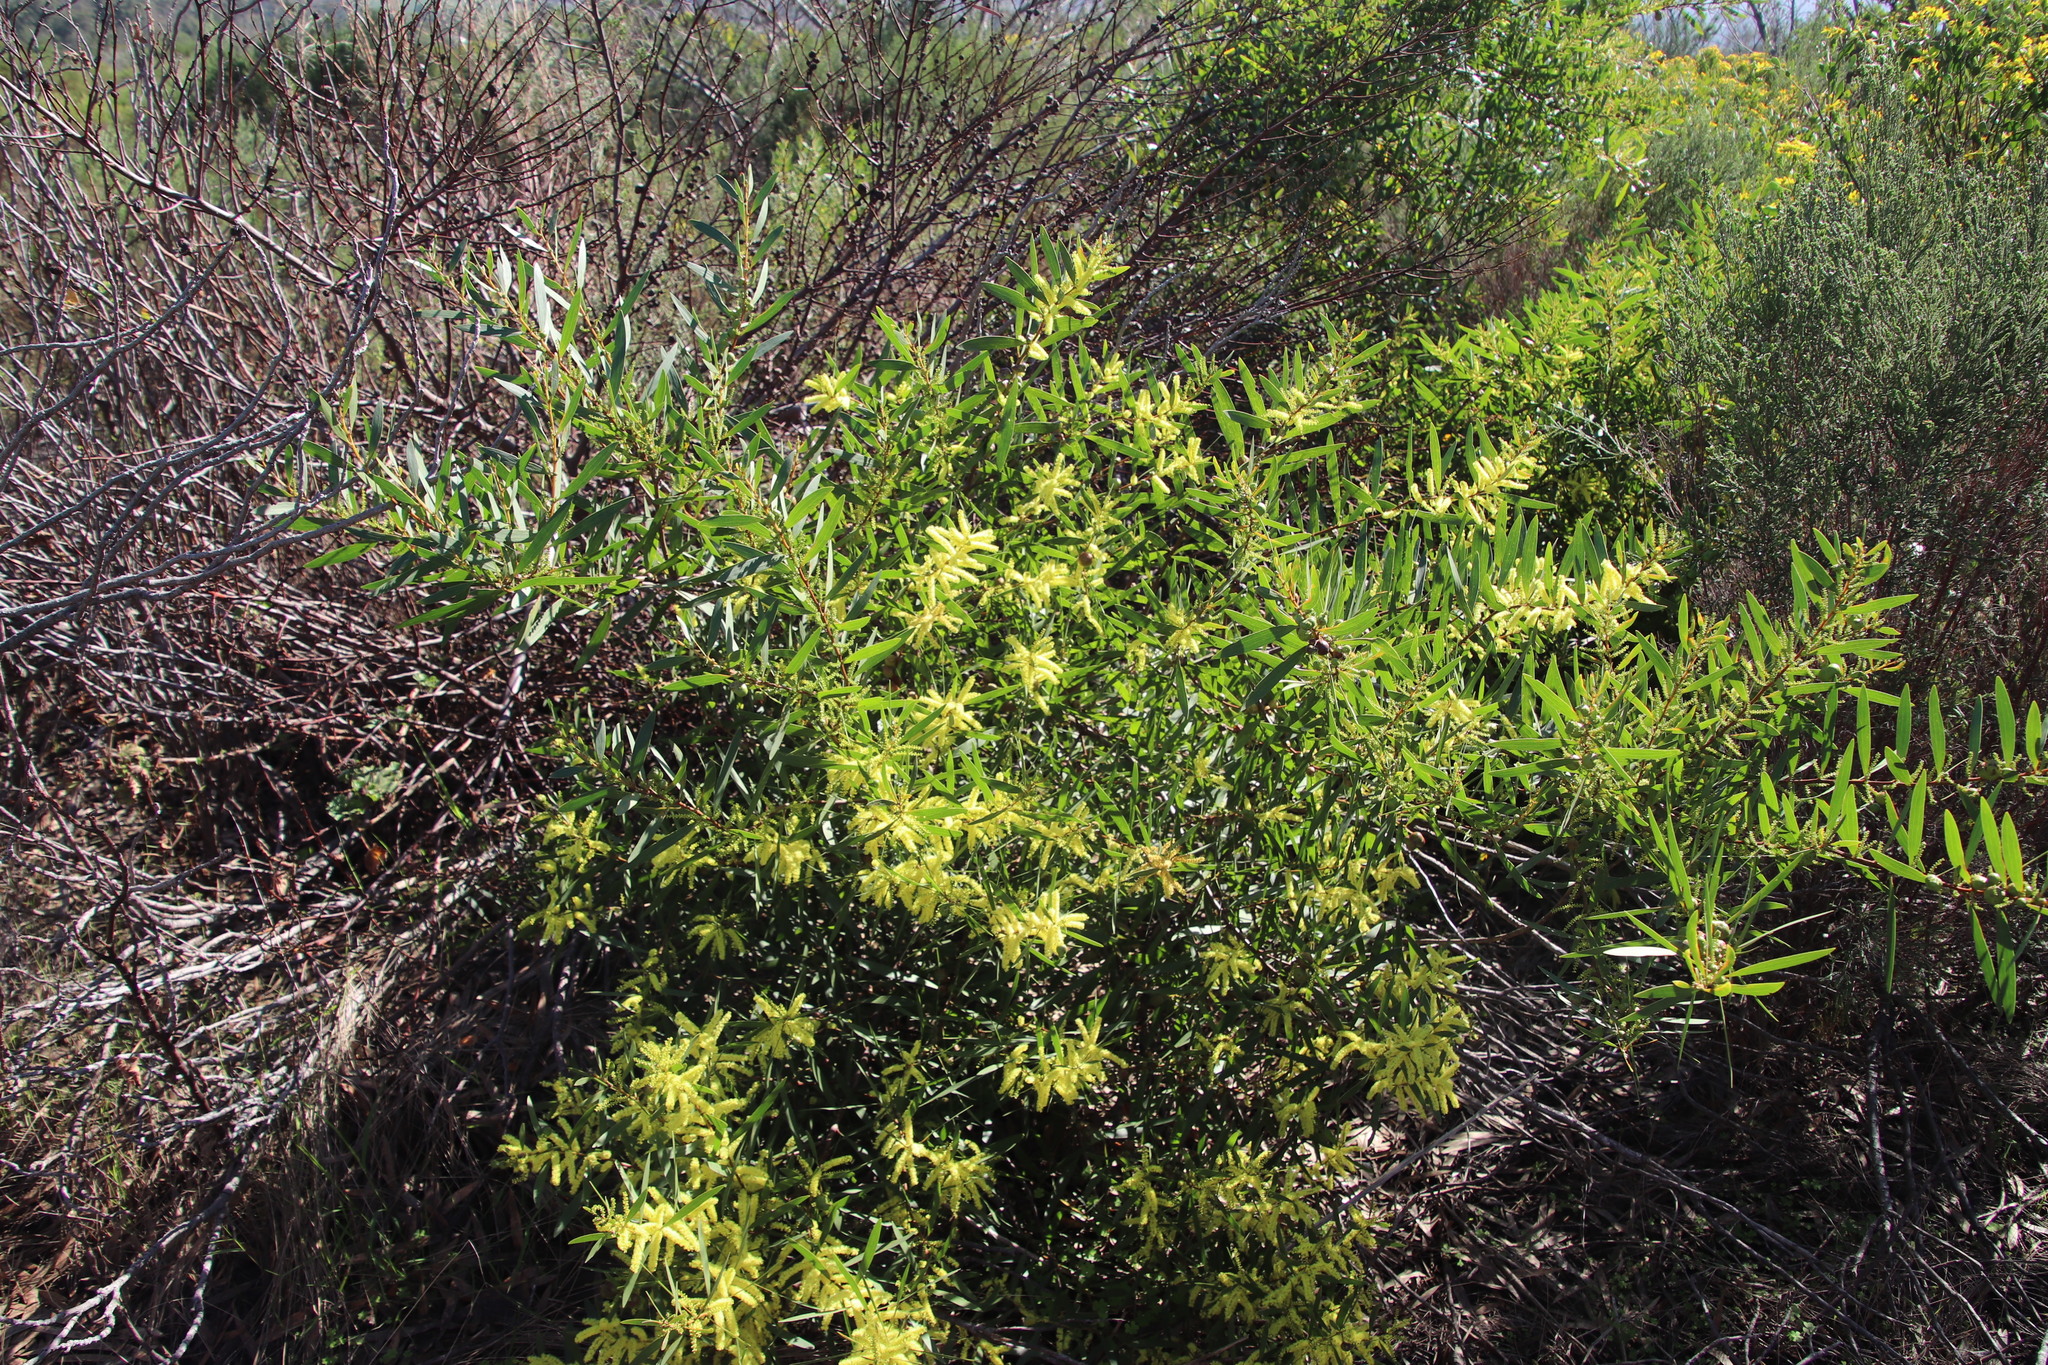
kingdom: Plantae
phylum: Tracheophyta
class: Magnoliopsida
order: Fabales
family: Fabaceae
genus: Acacia
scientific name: Acacia longifolia
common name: Sydney golden wattle
